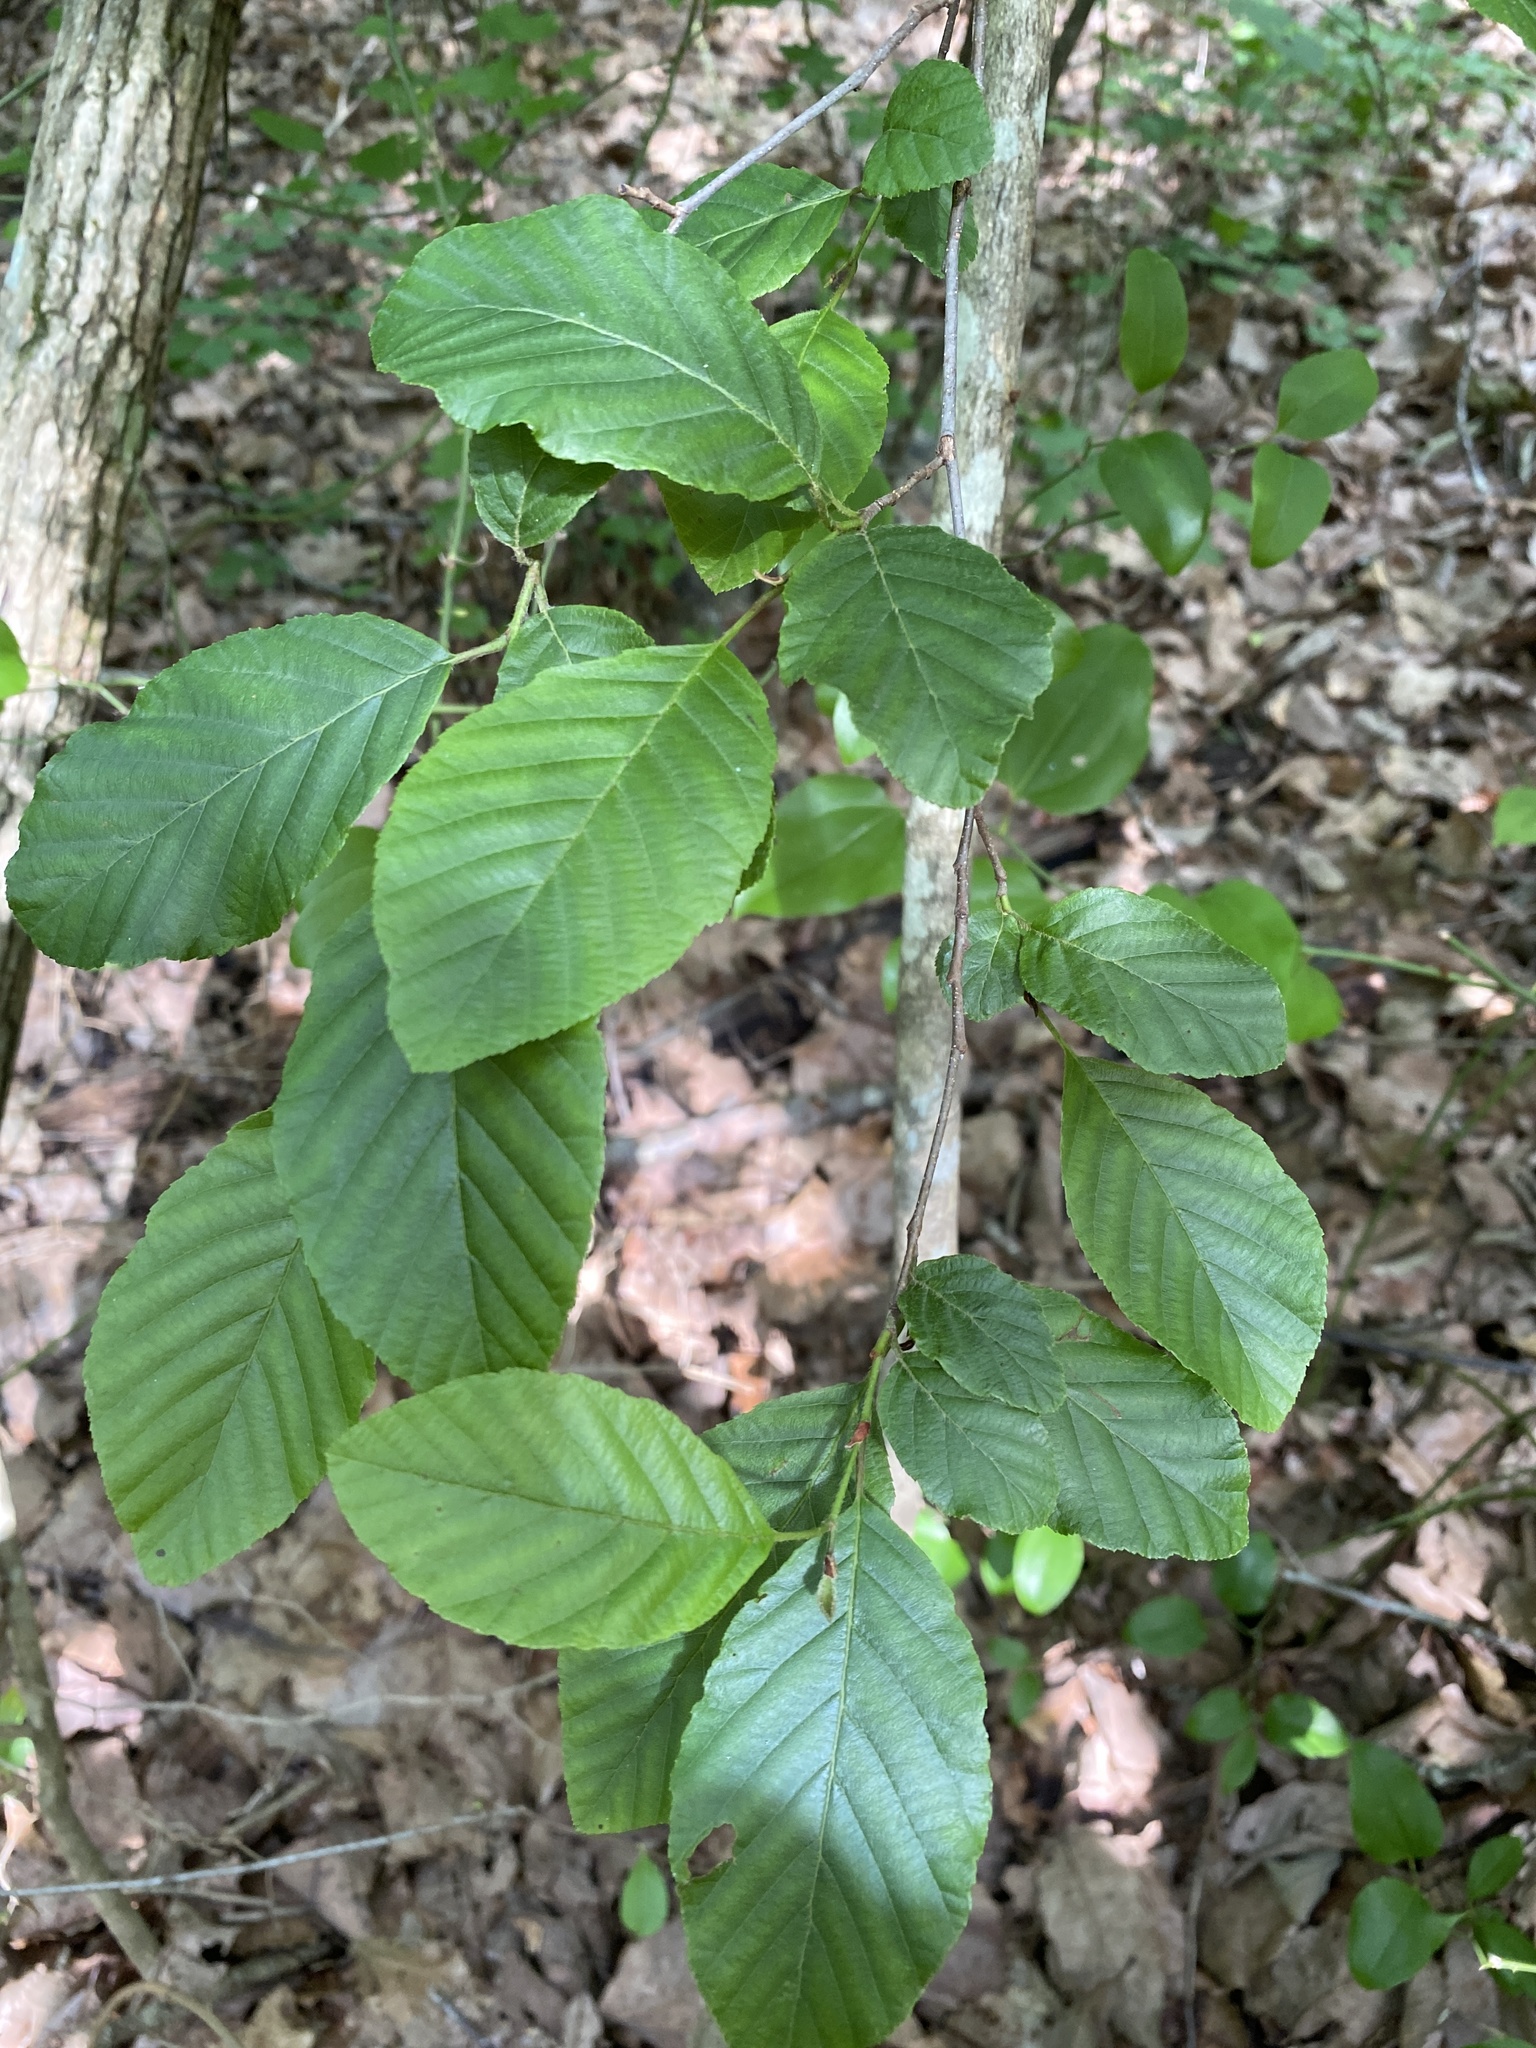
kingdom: Plantae
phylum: Tracheophyta
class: Magnoliopsida
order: Fagales
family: Betulaceae
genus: Alnus
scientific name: Alnus serrulata
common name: Hazel alder
